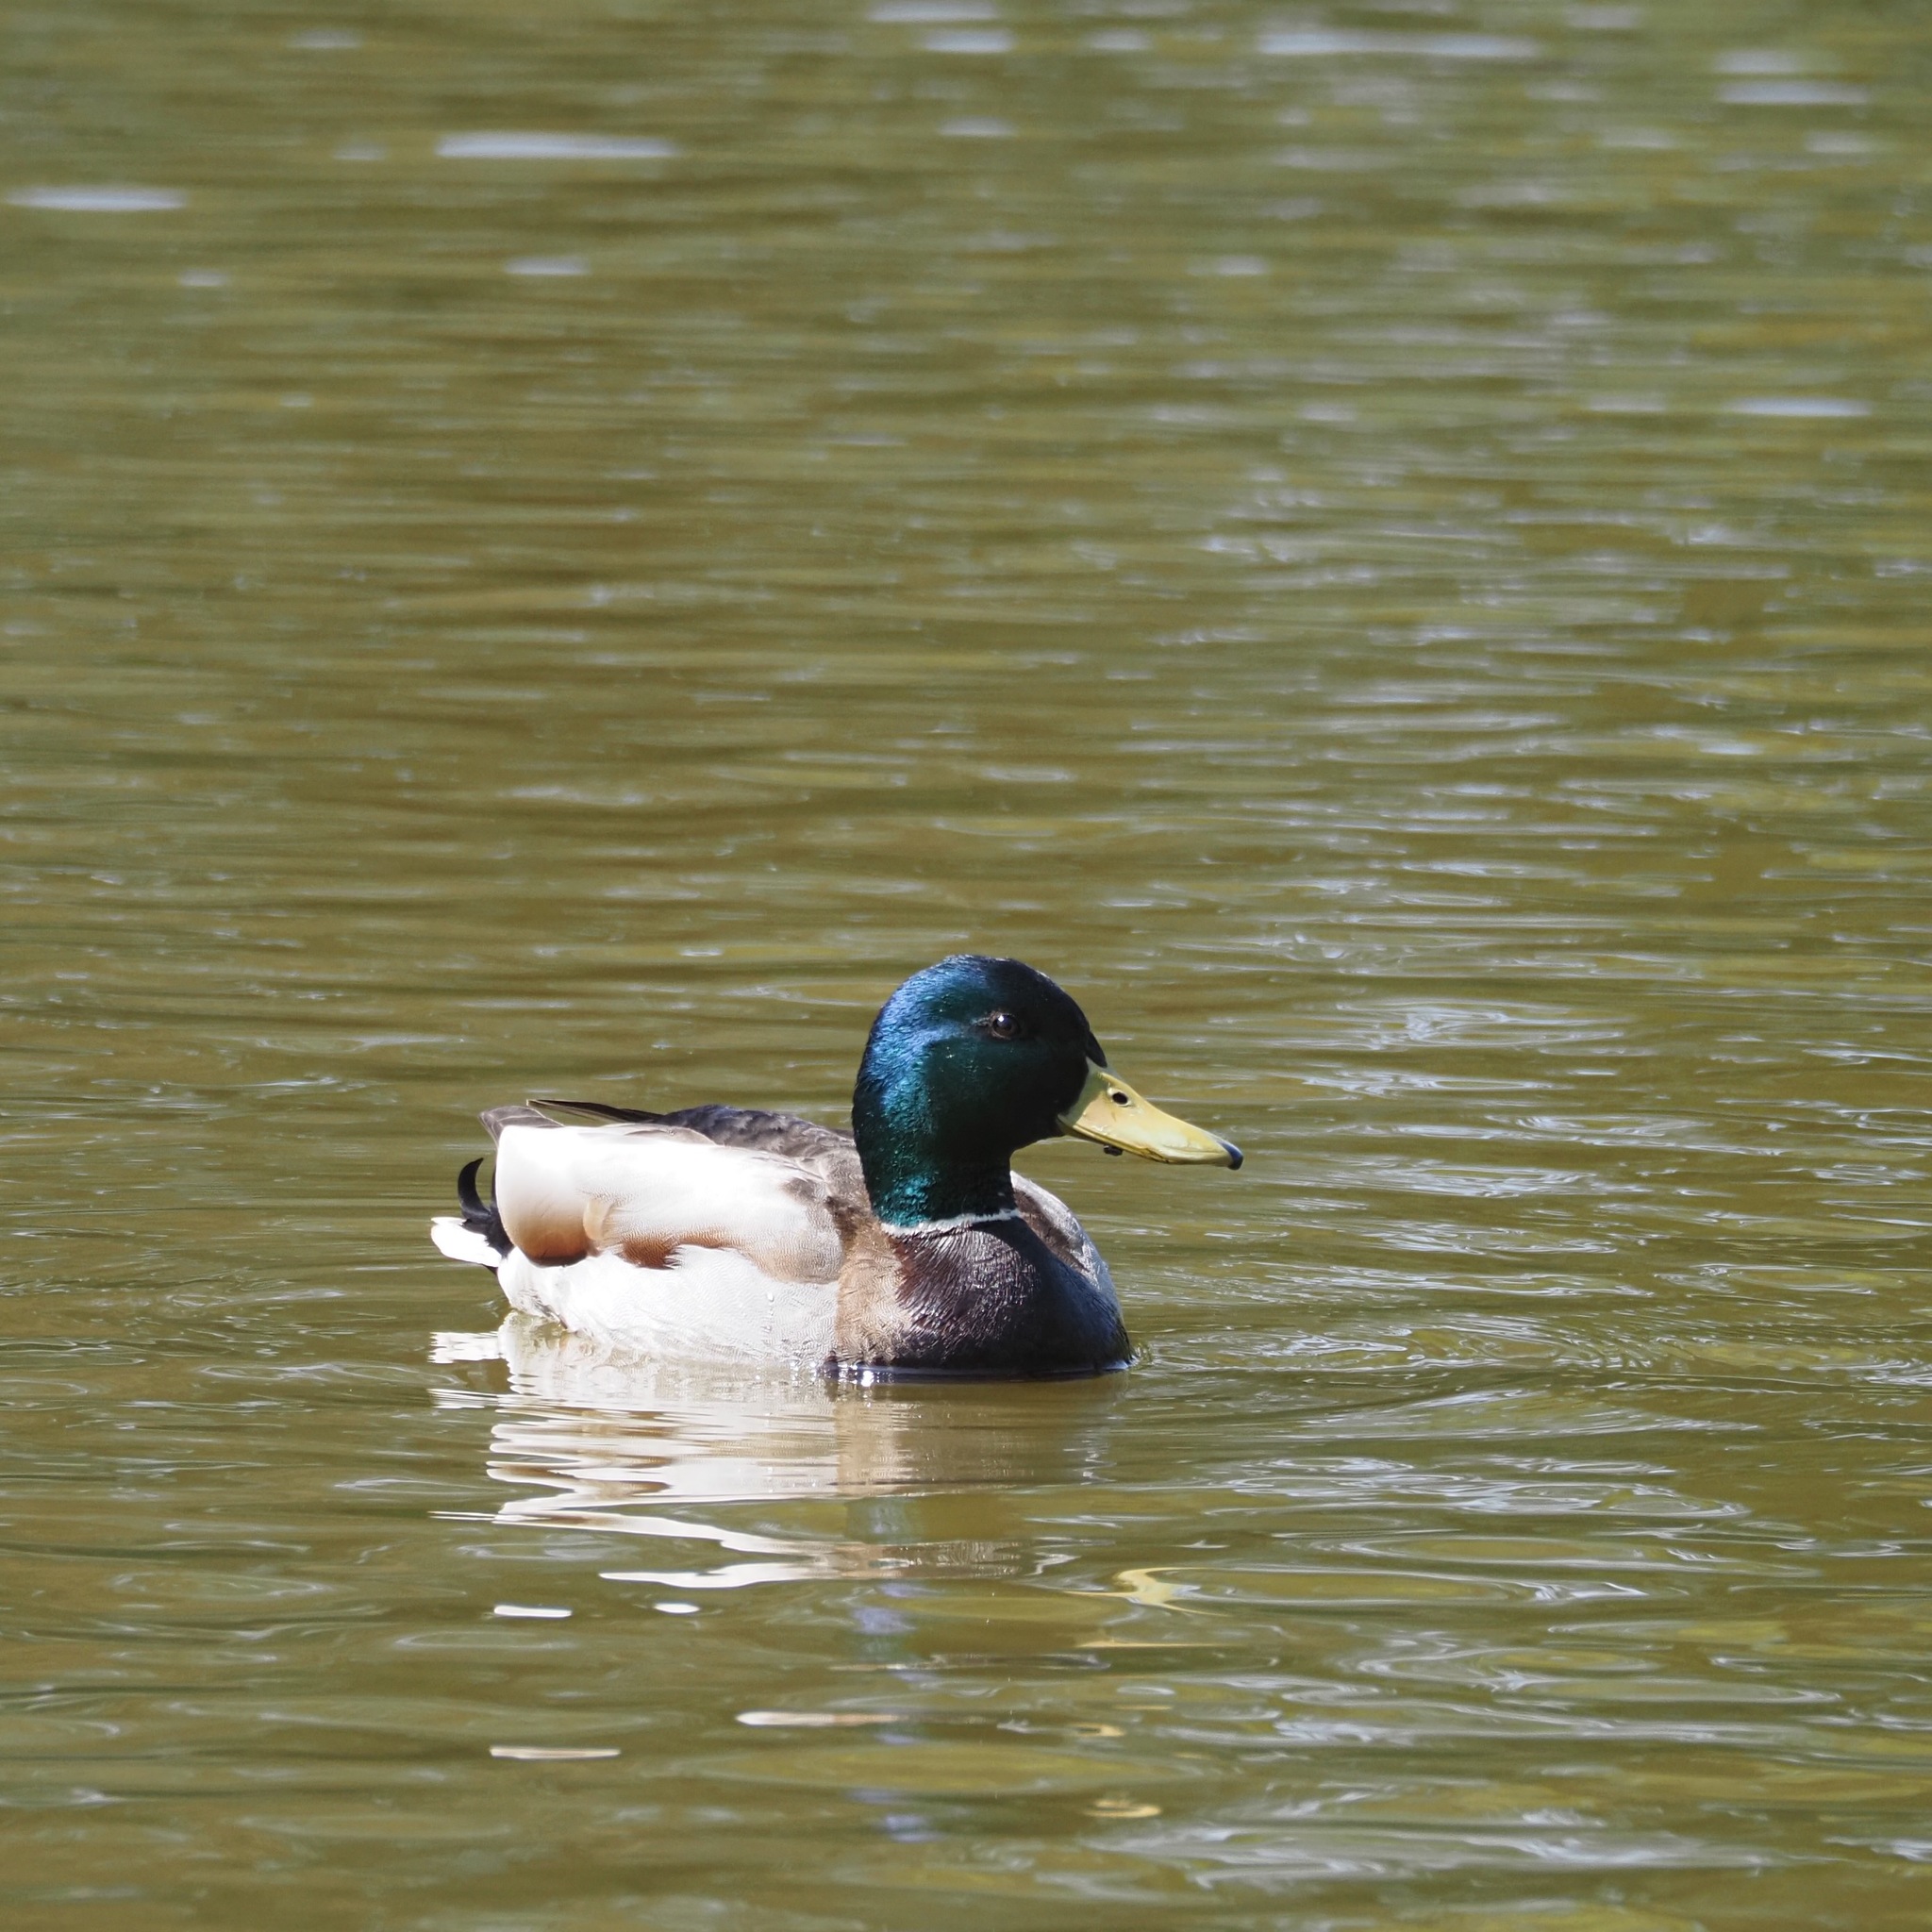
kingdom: Animalia
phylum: Chordata
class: Aves
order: Anseriformes
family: Anatidae
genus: Anas
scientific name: Anas platyrhynchos
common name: Mallard
